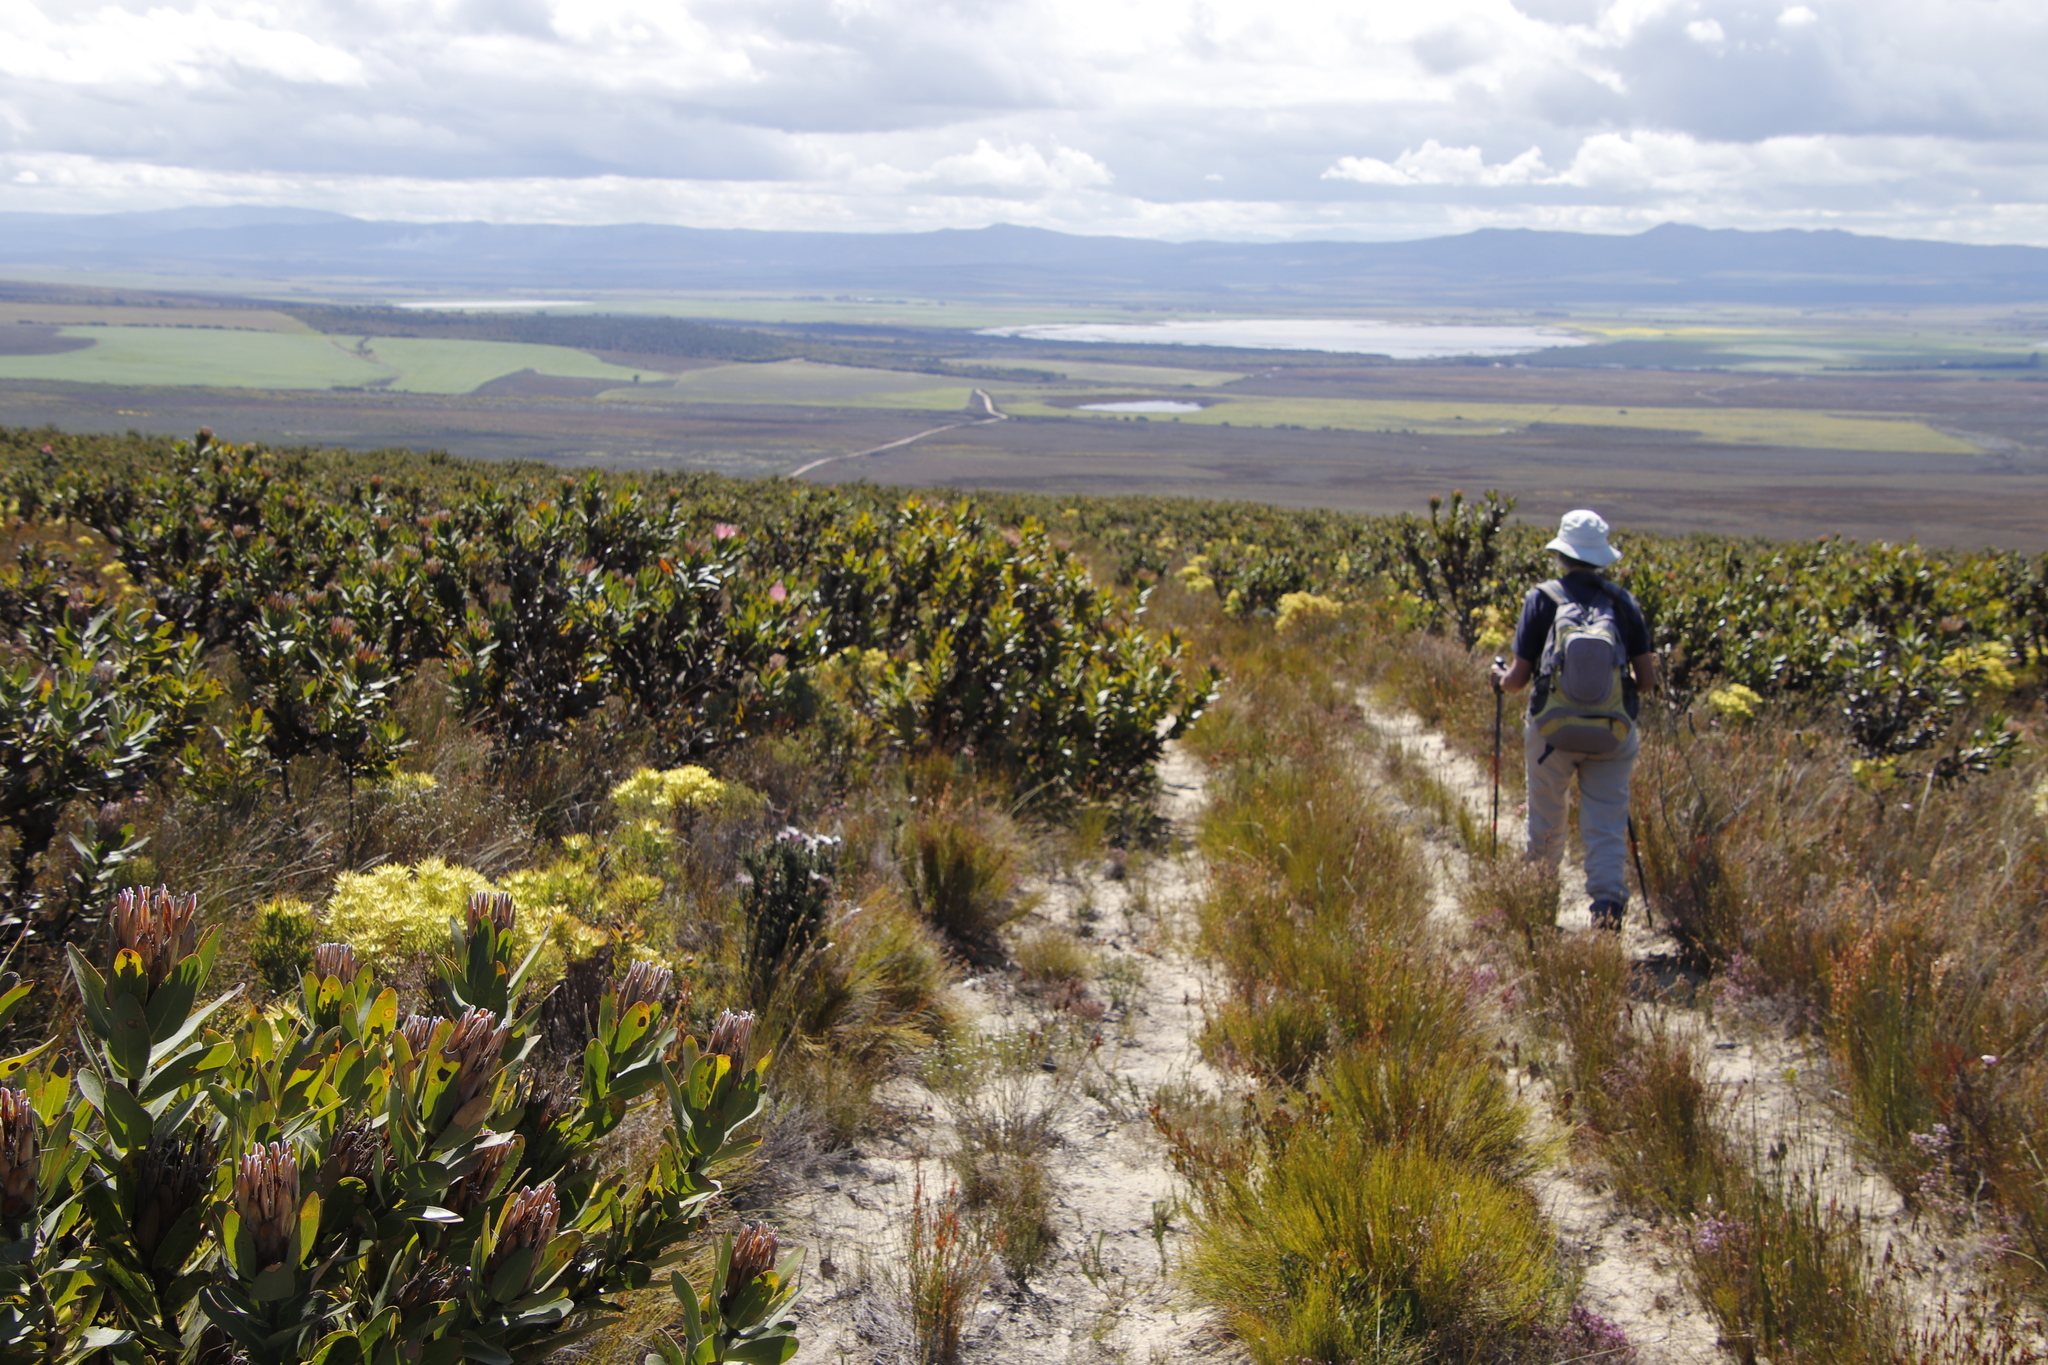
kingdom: Plantae
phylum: Tracheophyta
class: Magnoliopsida
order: Proteales
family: Proteaceae
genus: Protea
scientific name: Protea compacta
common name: Bot river protea
